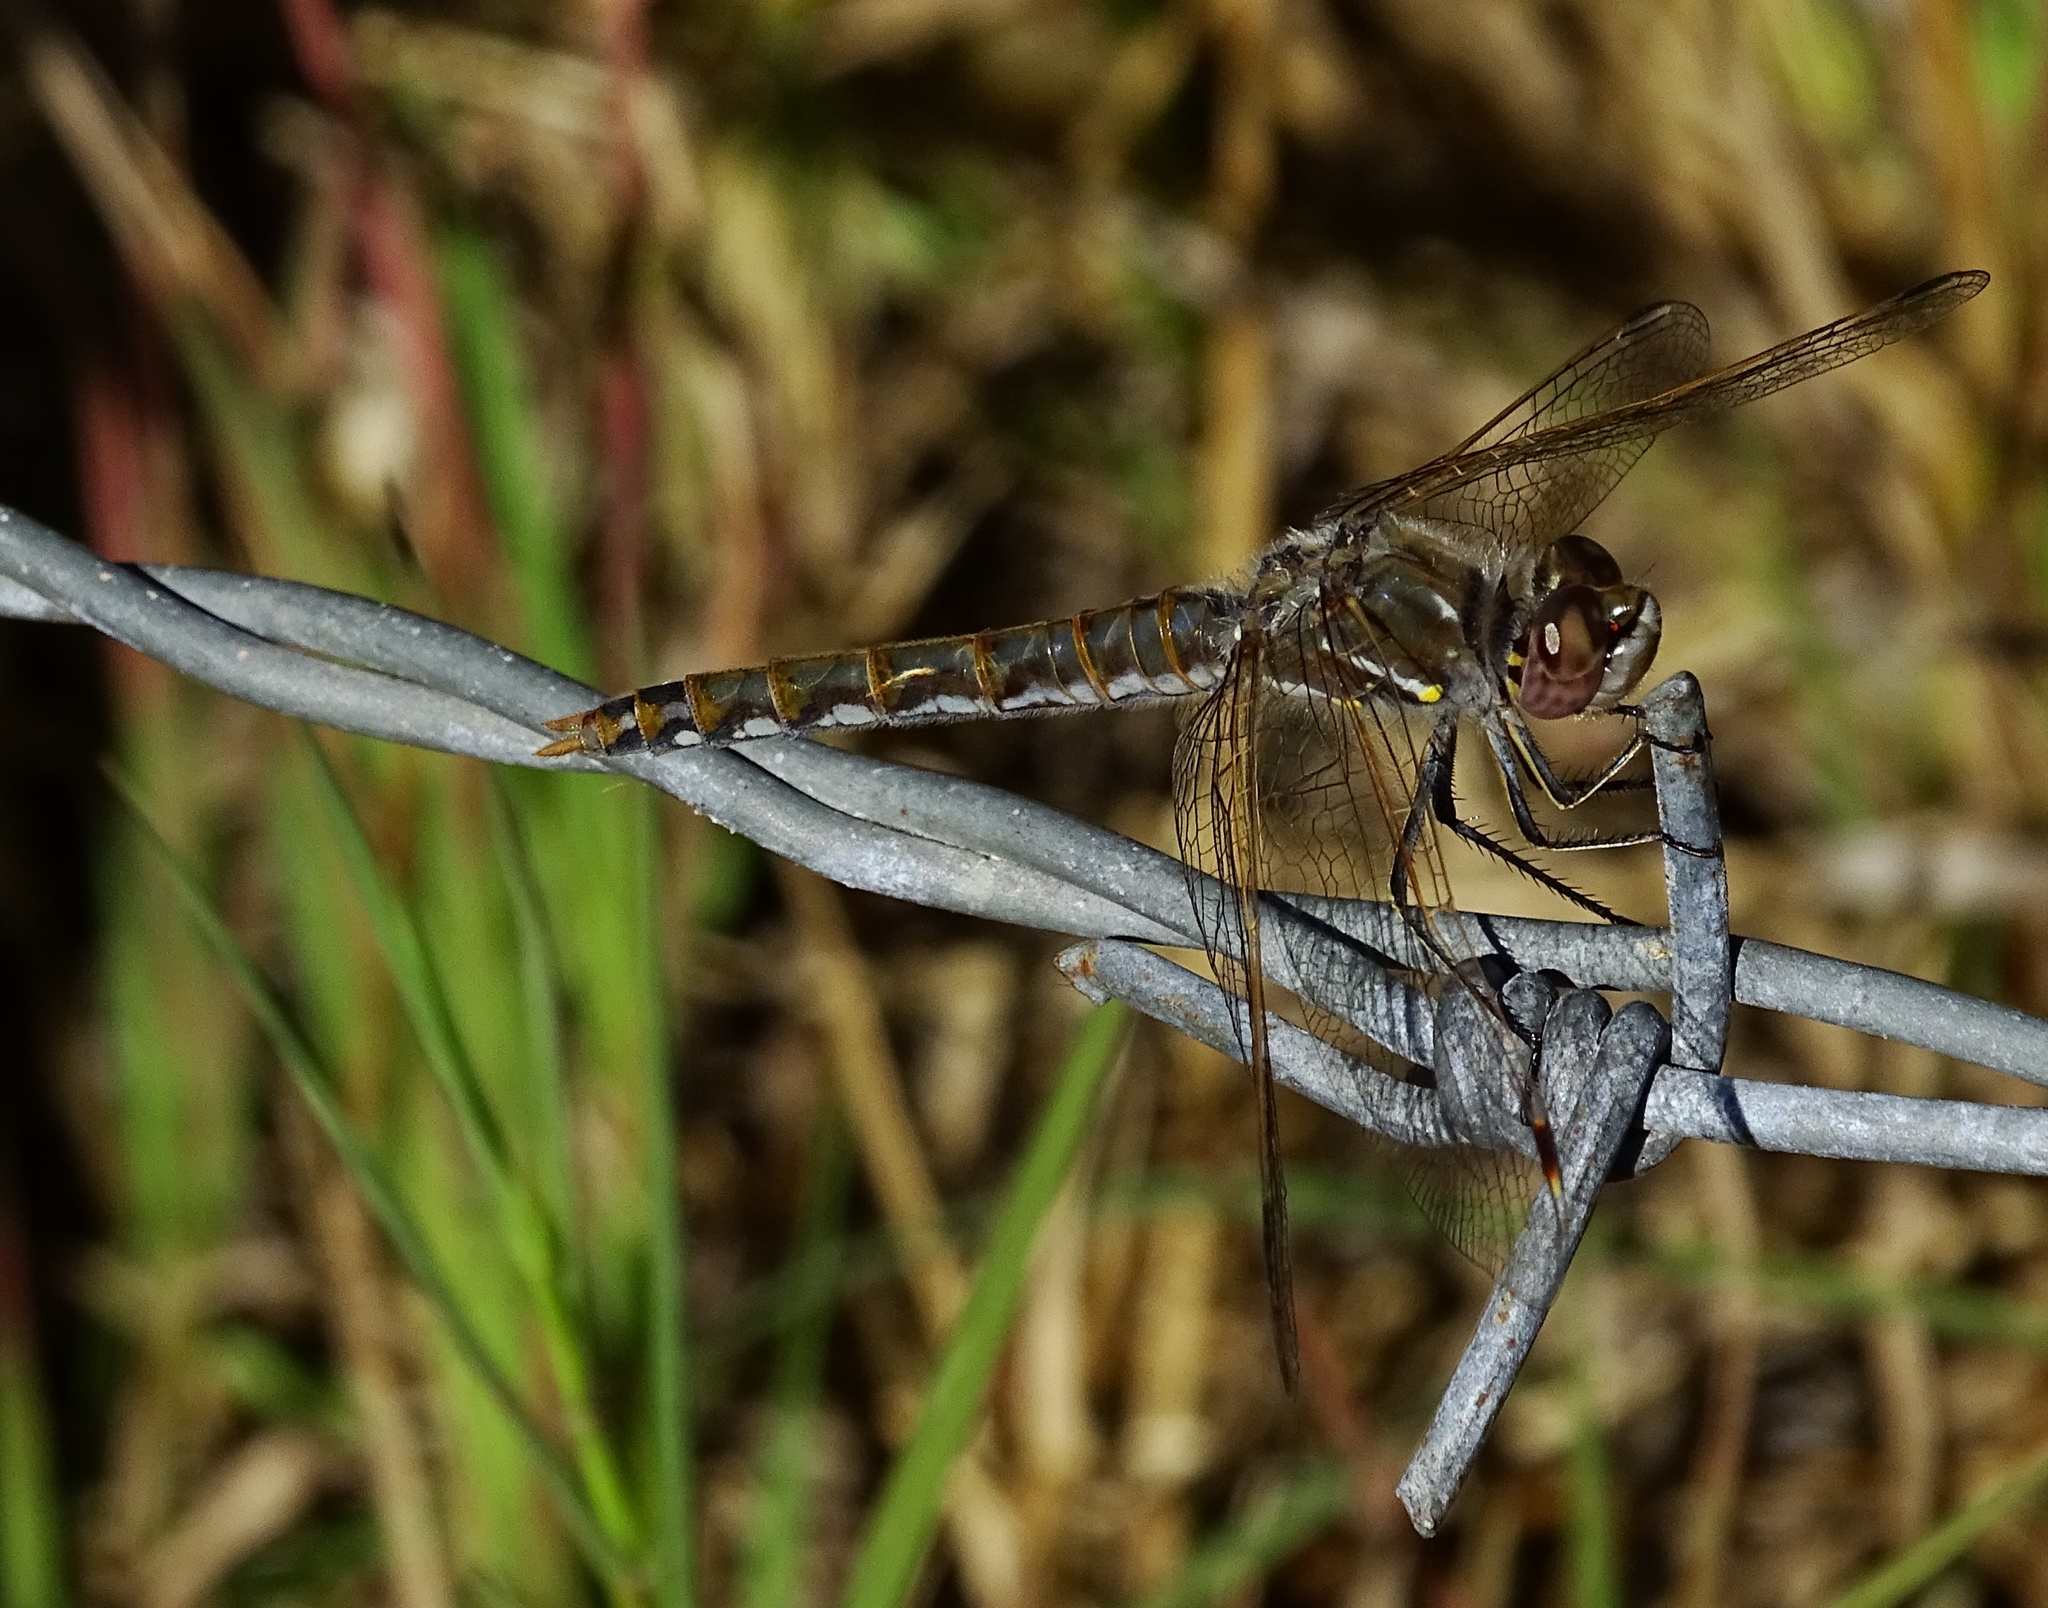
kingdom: Animalia
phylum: Arthropoda
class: Insecta
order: Odonata
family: Libellulidae
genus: Sympetrum
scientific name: Sympetrum corruptum
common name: Variegated meadowhawk
